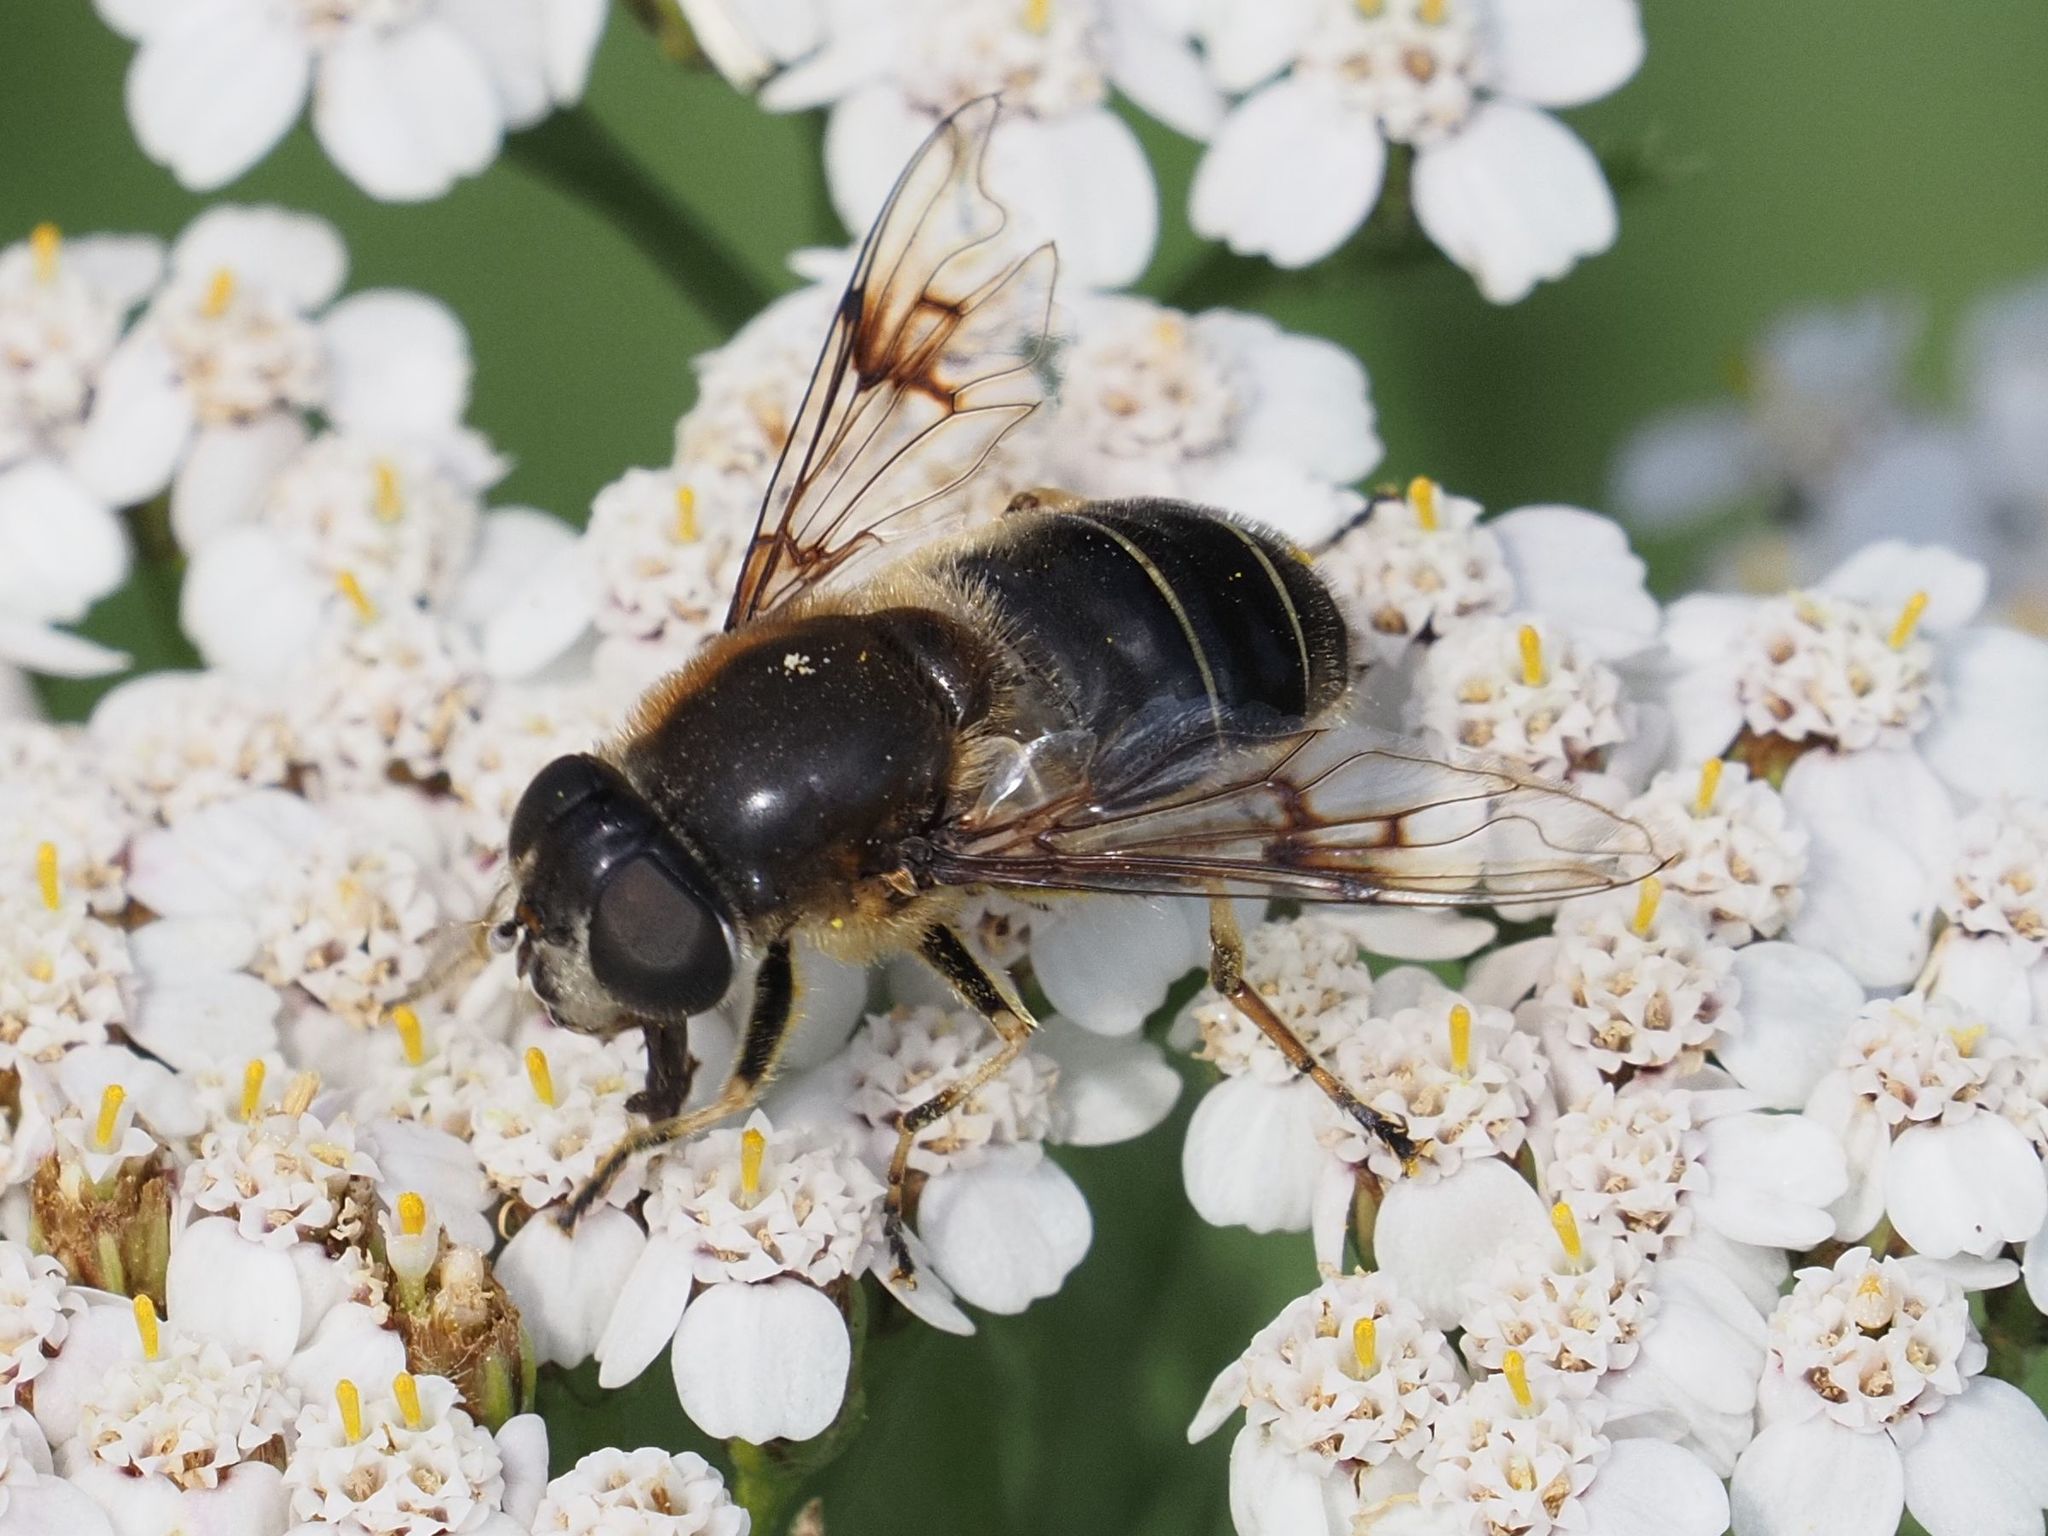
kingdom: Animalia
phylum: Arthropoda
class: Insecta
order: Diptera
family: Syrphidae
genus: Eristalis
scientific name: Eristalis rupium
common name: Hover fly
